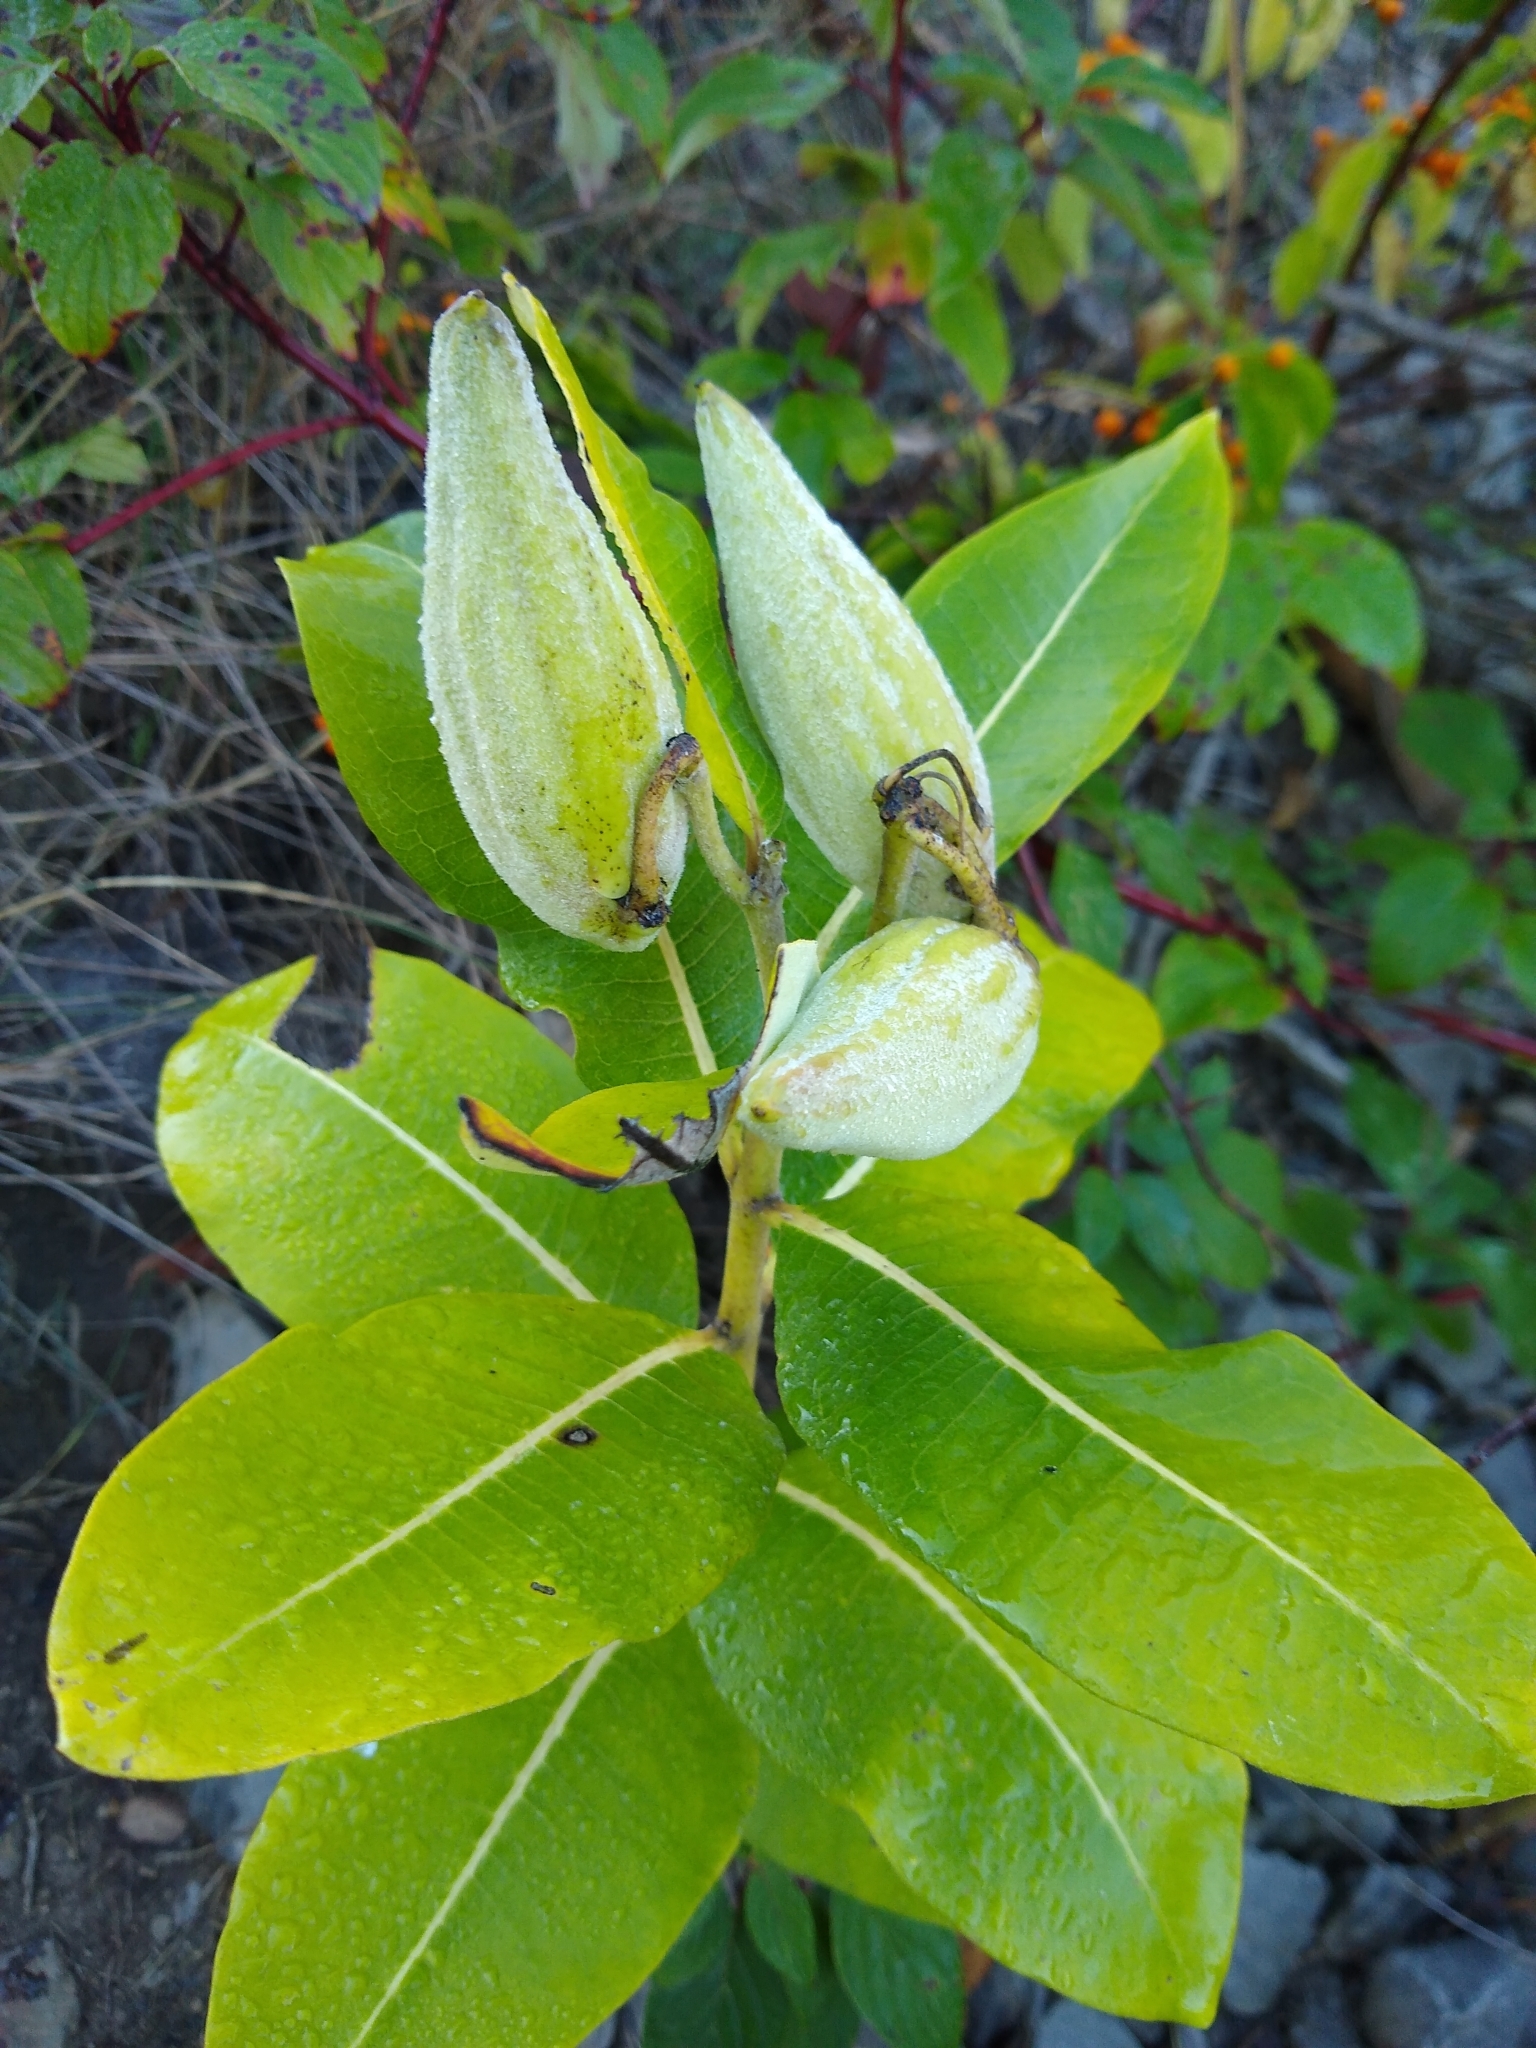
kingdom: Plantae
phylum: Tracheophyta
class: Magnoliopsida
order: Gentianales
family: Apocynaceae
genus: Asclepias
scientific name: Asclepias syriaca
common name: Common milkweed
